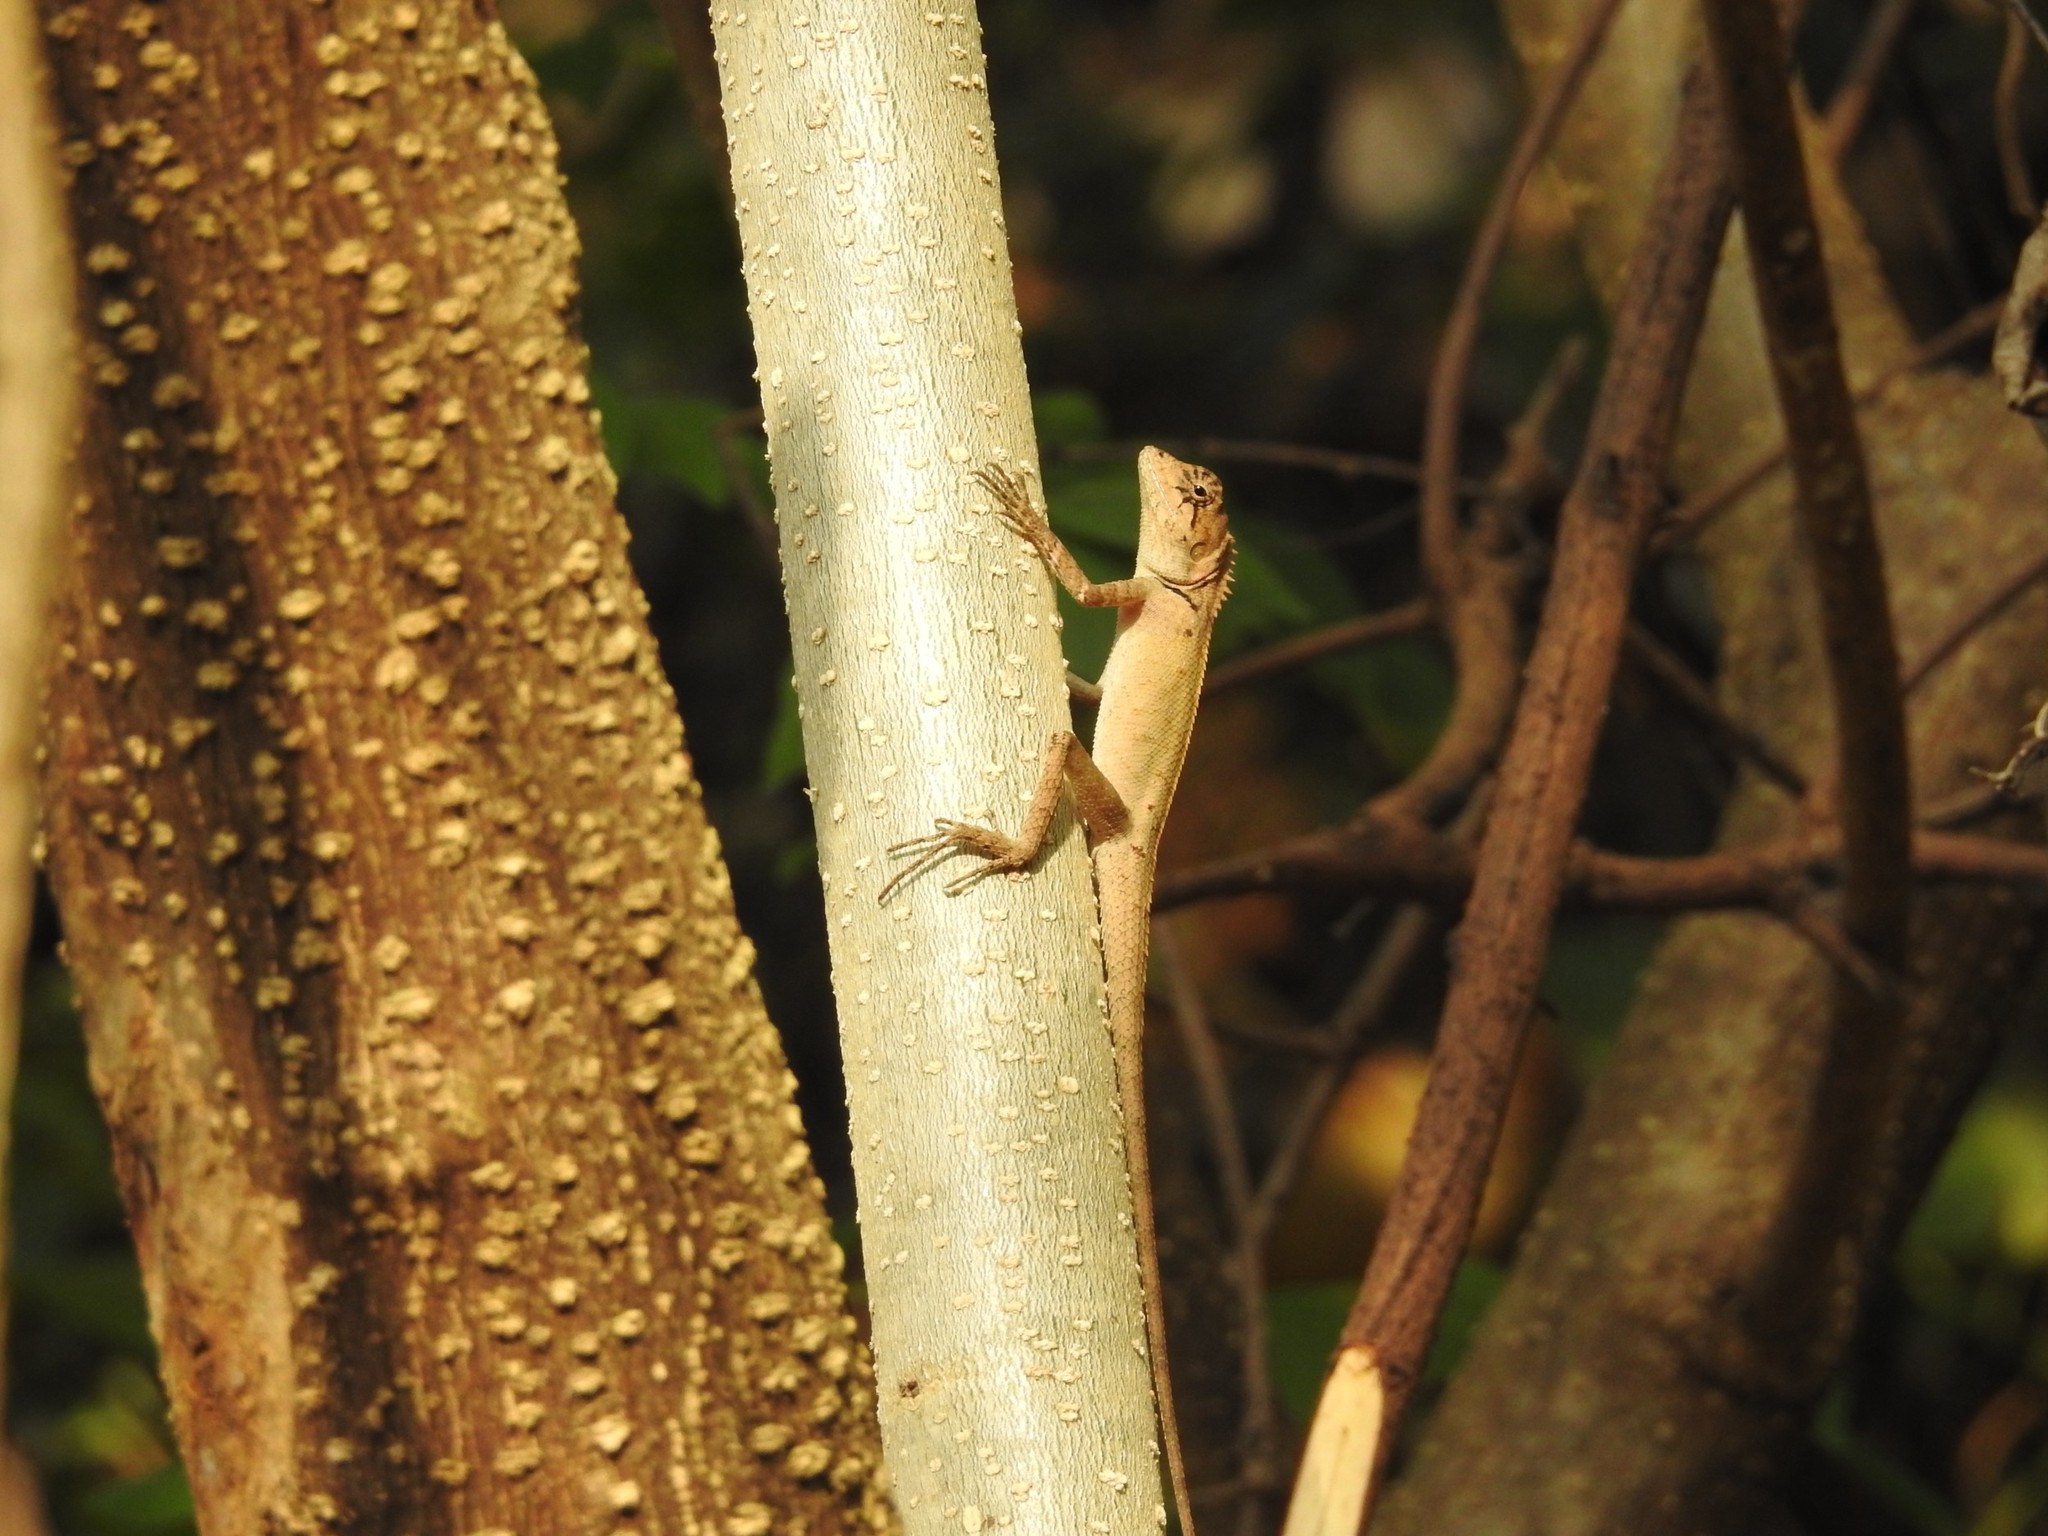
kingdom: Animalia
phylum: Chordata
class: Squamata
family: Agamidae
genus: Calotes
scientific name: Calotes versicolor
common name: Oriental garden lizard
